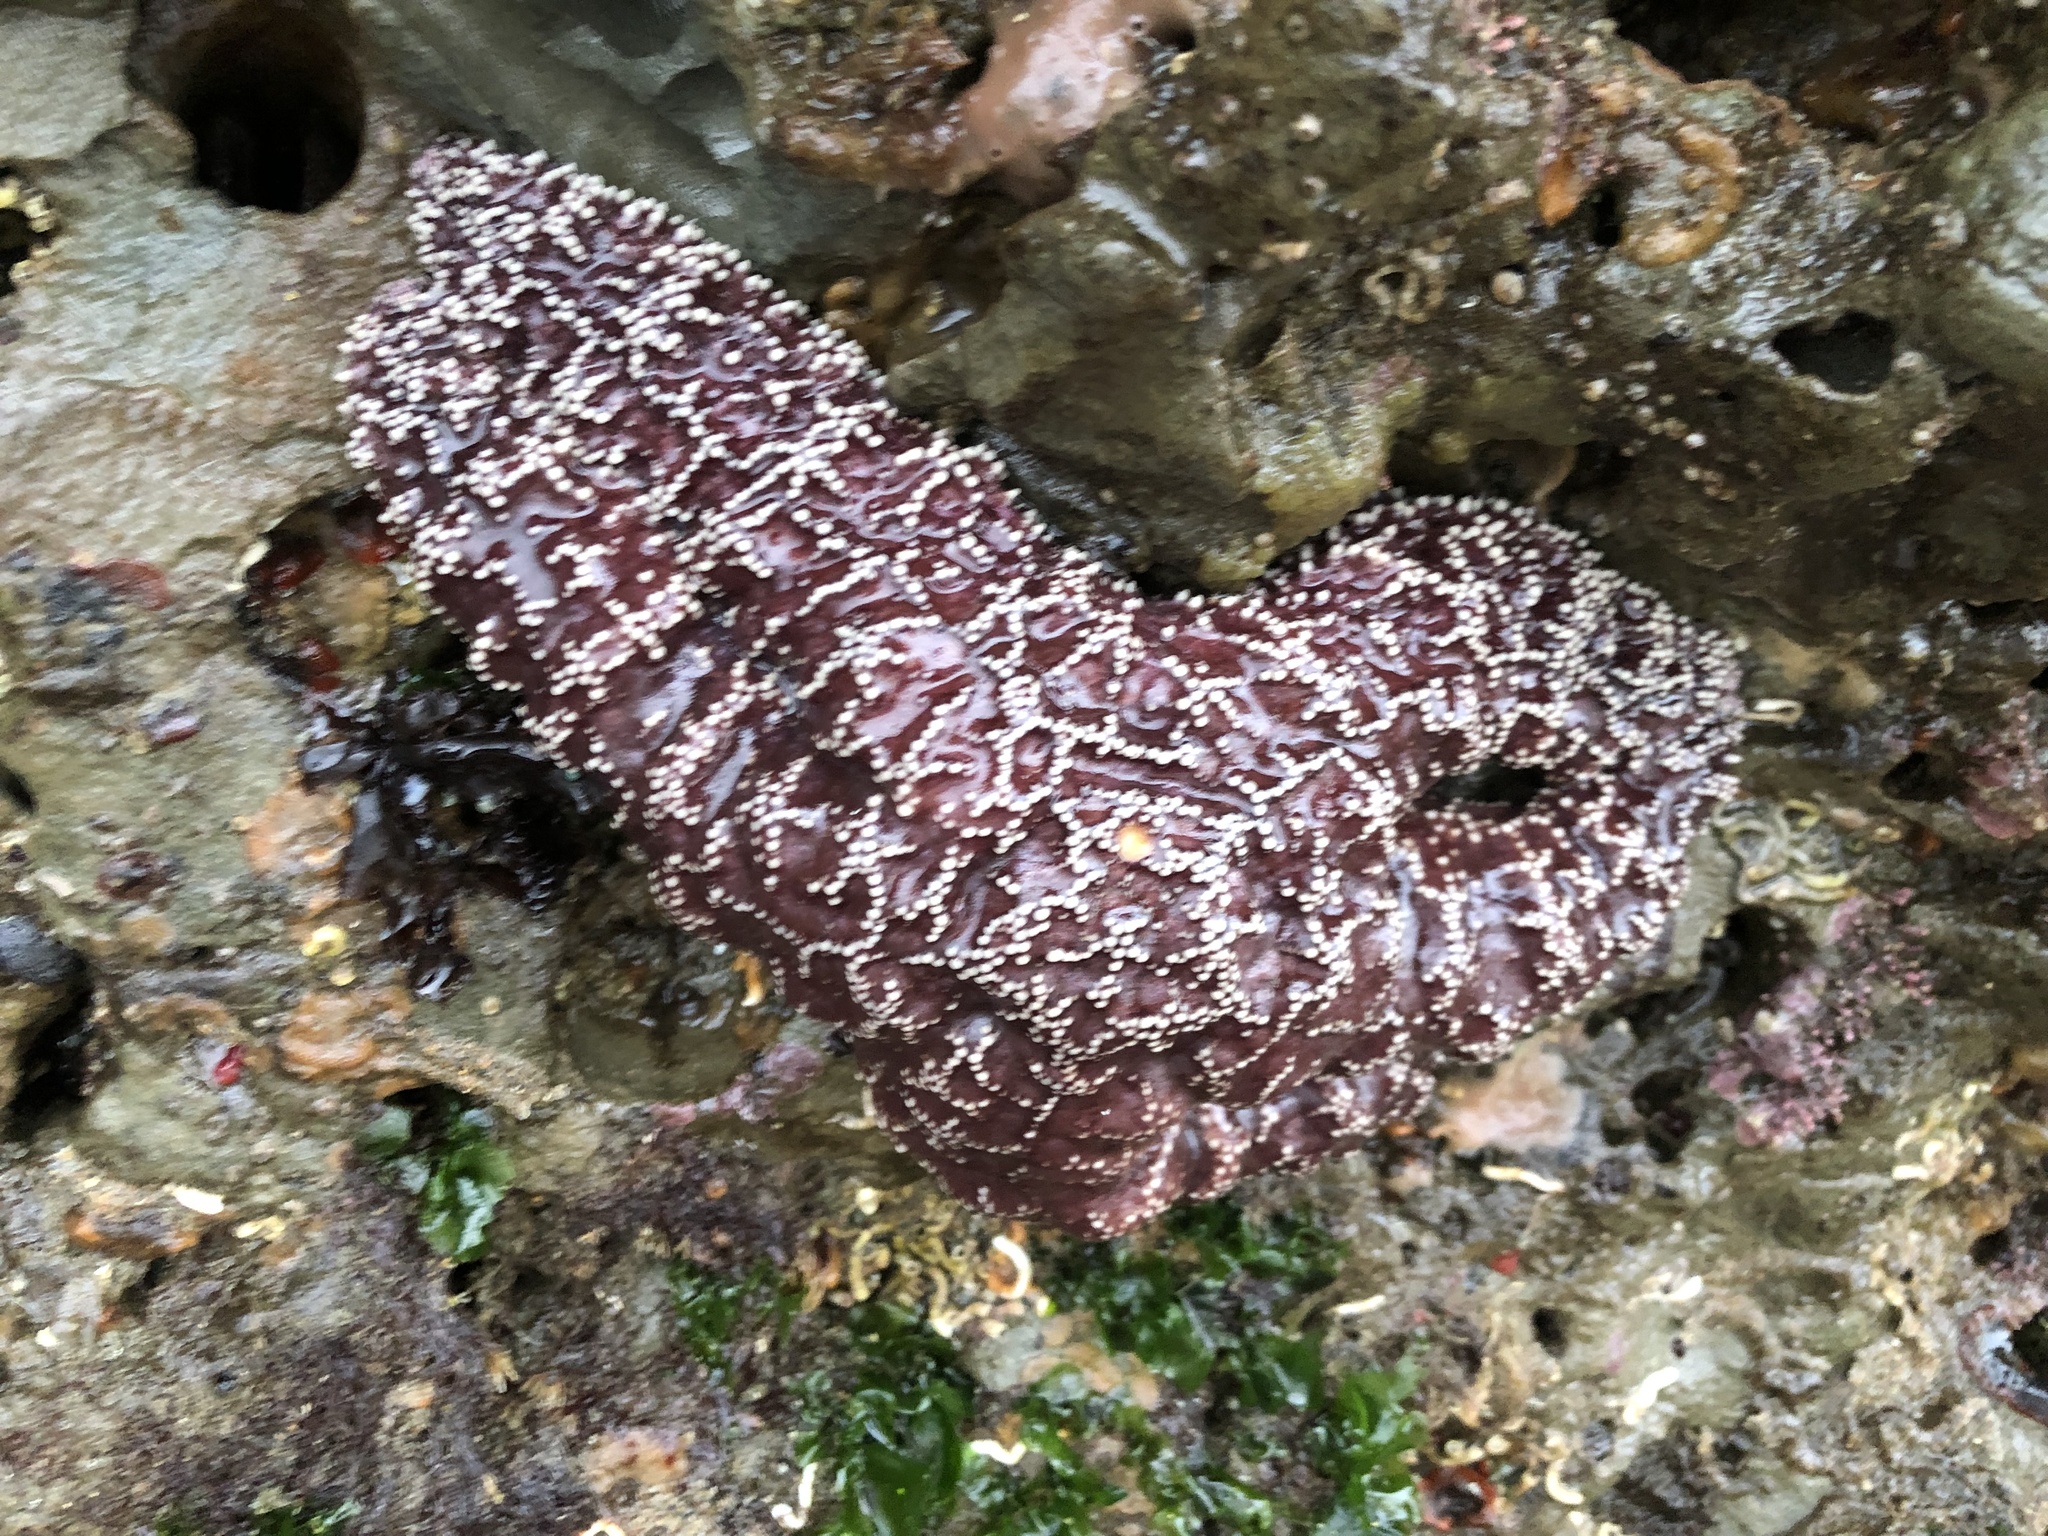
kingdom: Animalia
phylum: Echinodermata
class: Asteroidea
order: Forcipulatida
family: Asteriidae
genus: Pisaster
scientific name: Pisaster ochraceus
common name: Ochre stars
